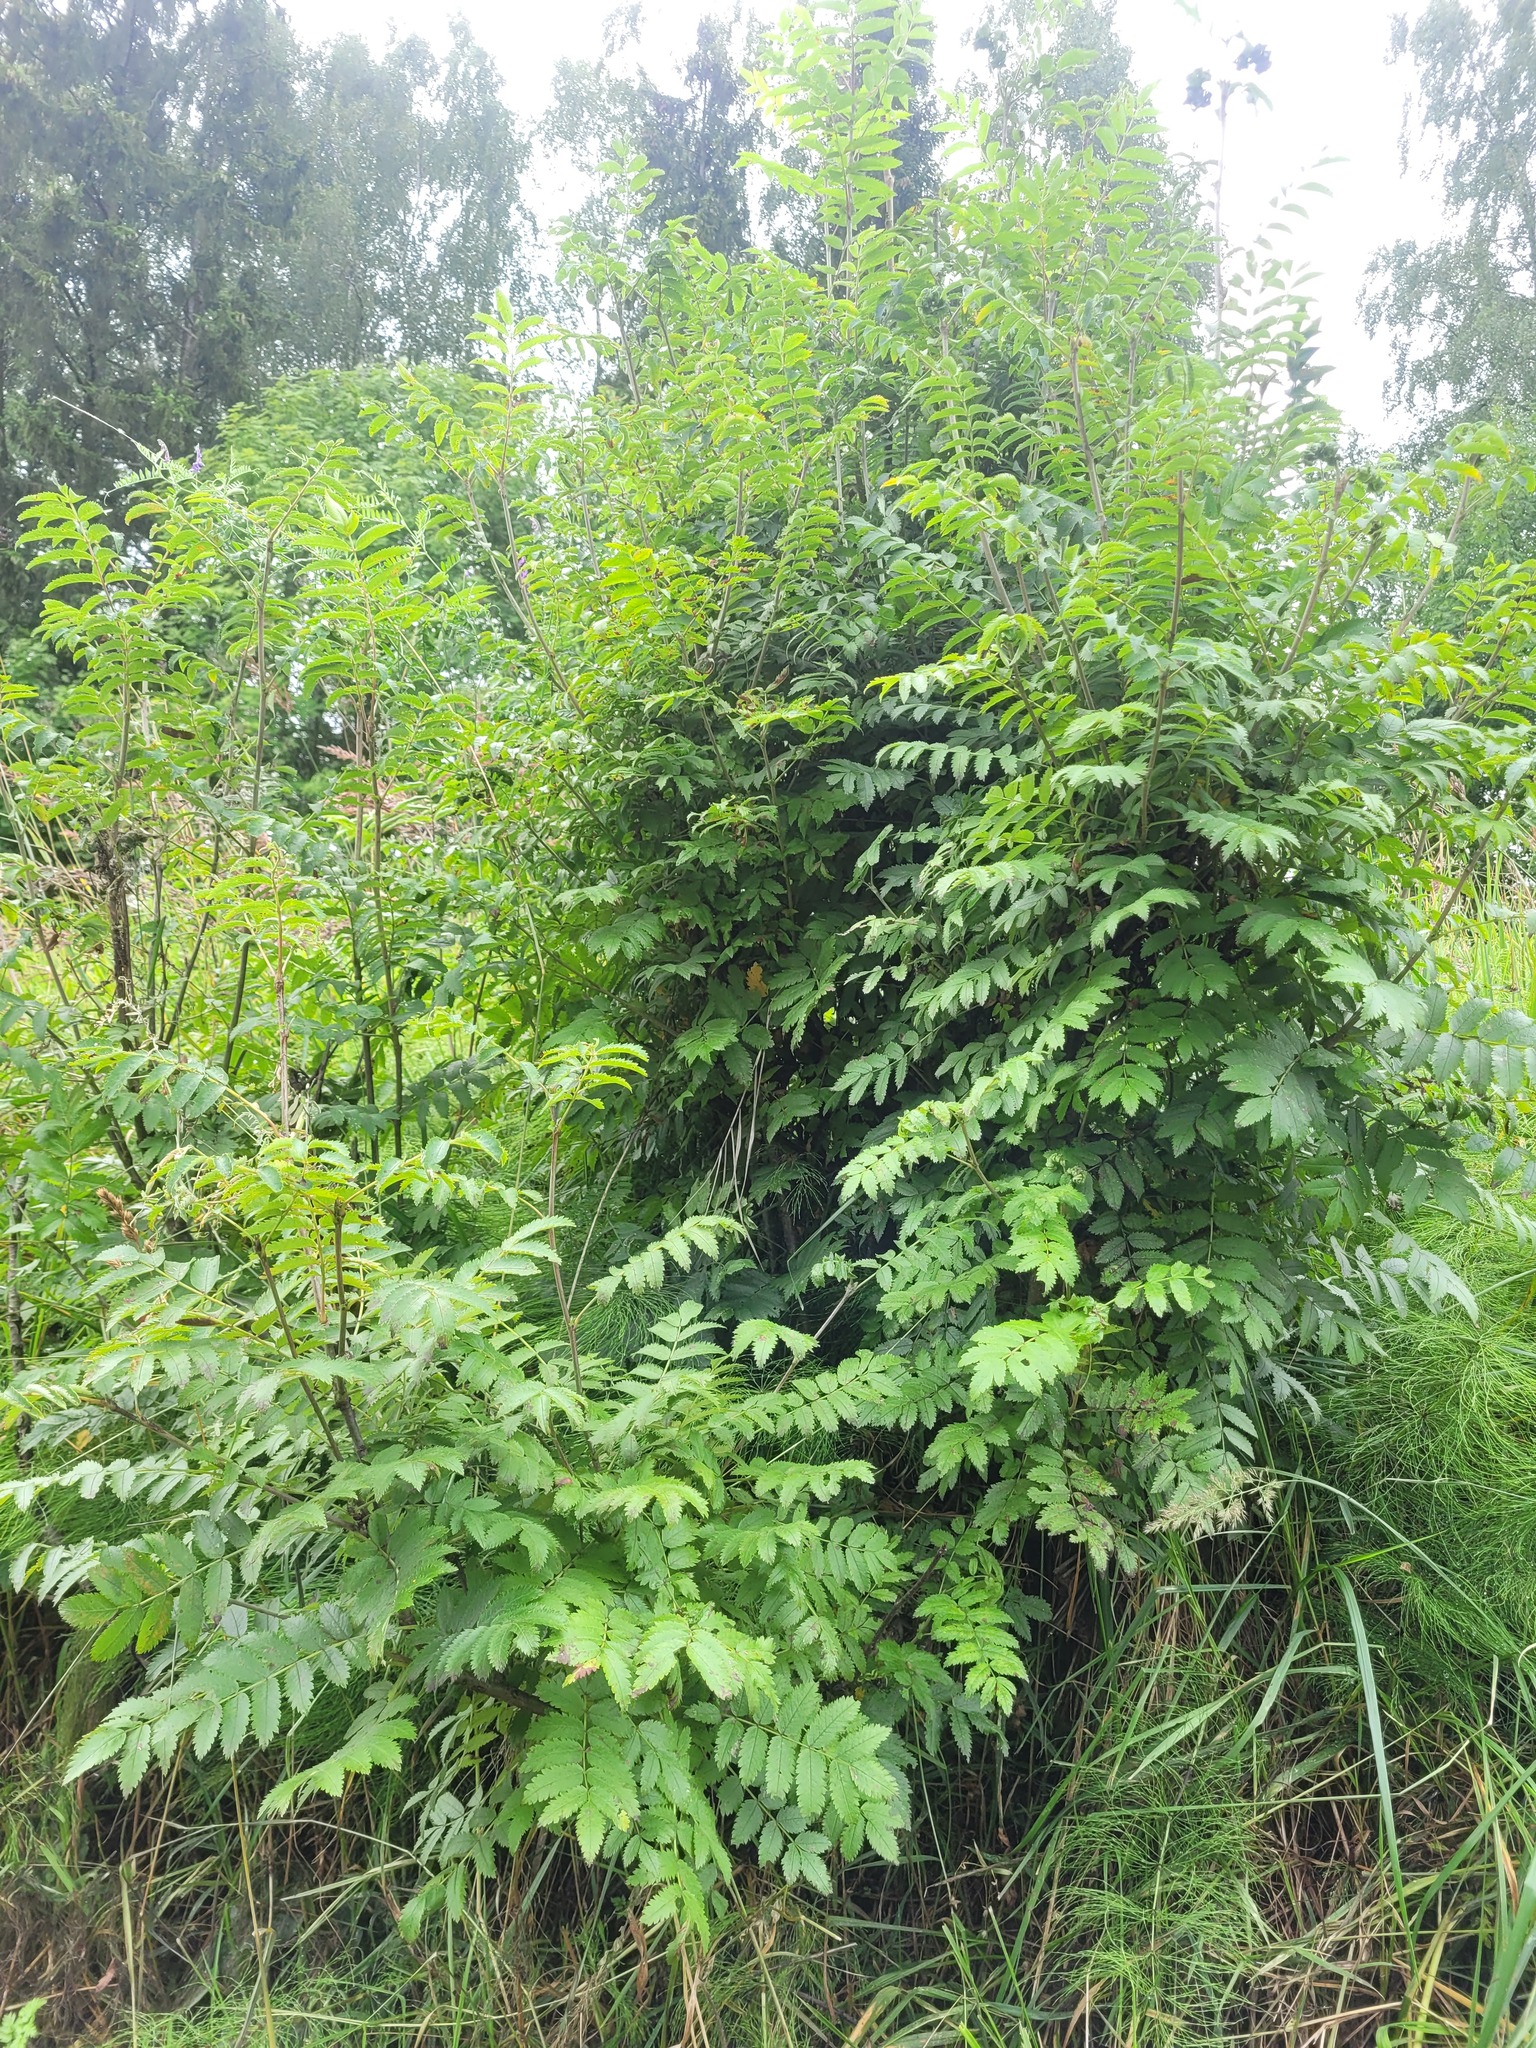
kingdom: Plantae
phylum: Tracheophyta
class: Magnoliopsida
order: Rosales
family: Rosaceae
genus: Sorbus
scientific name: Sorbus aucuparia
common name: Rowan
